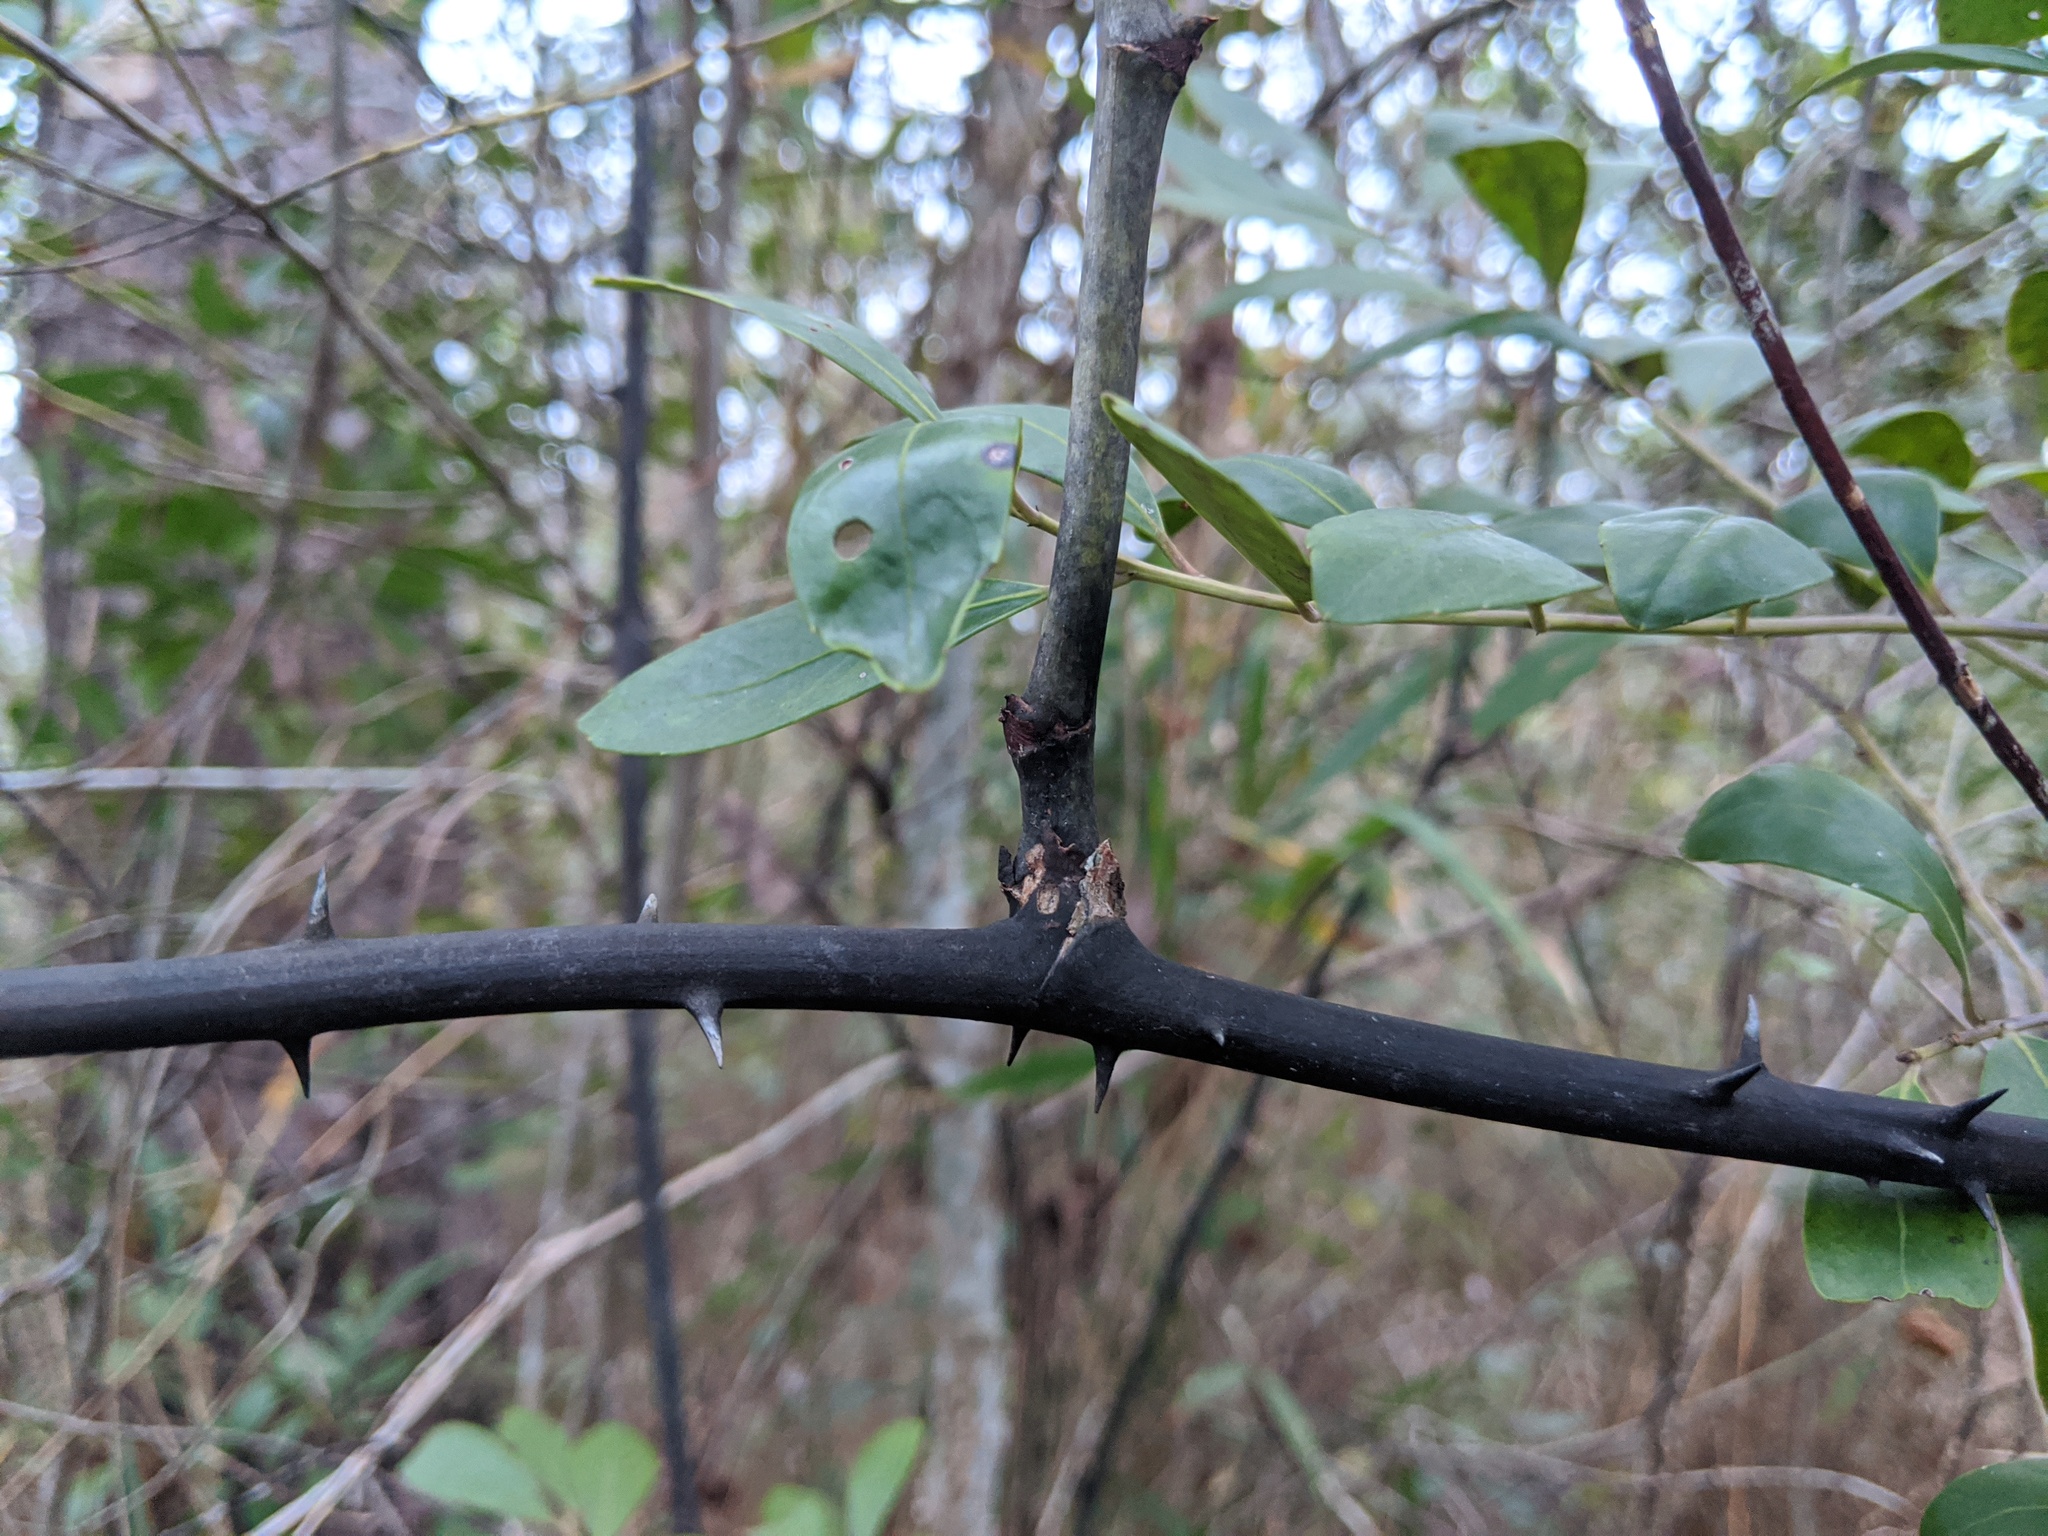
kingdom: Plantae
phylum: Tracheophyta
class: Liliopsida
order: Liliales
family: Smilacaceae
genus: Smilax
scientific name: Smilax laurifolia
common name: Bamboovine
